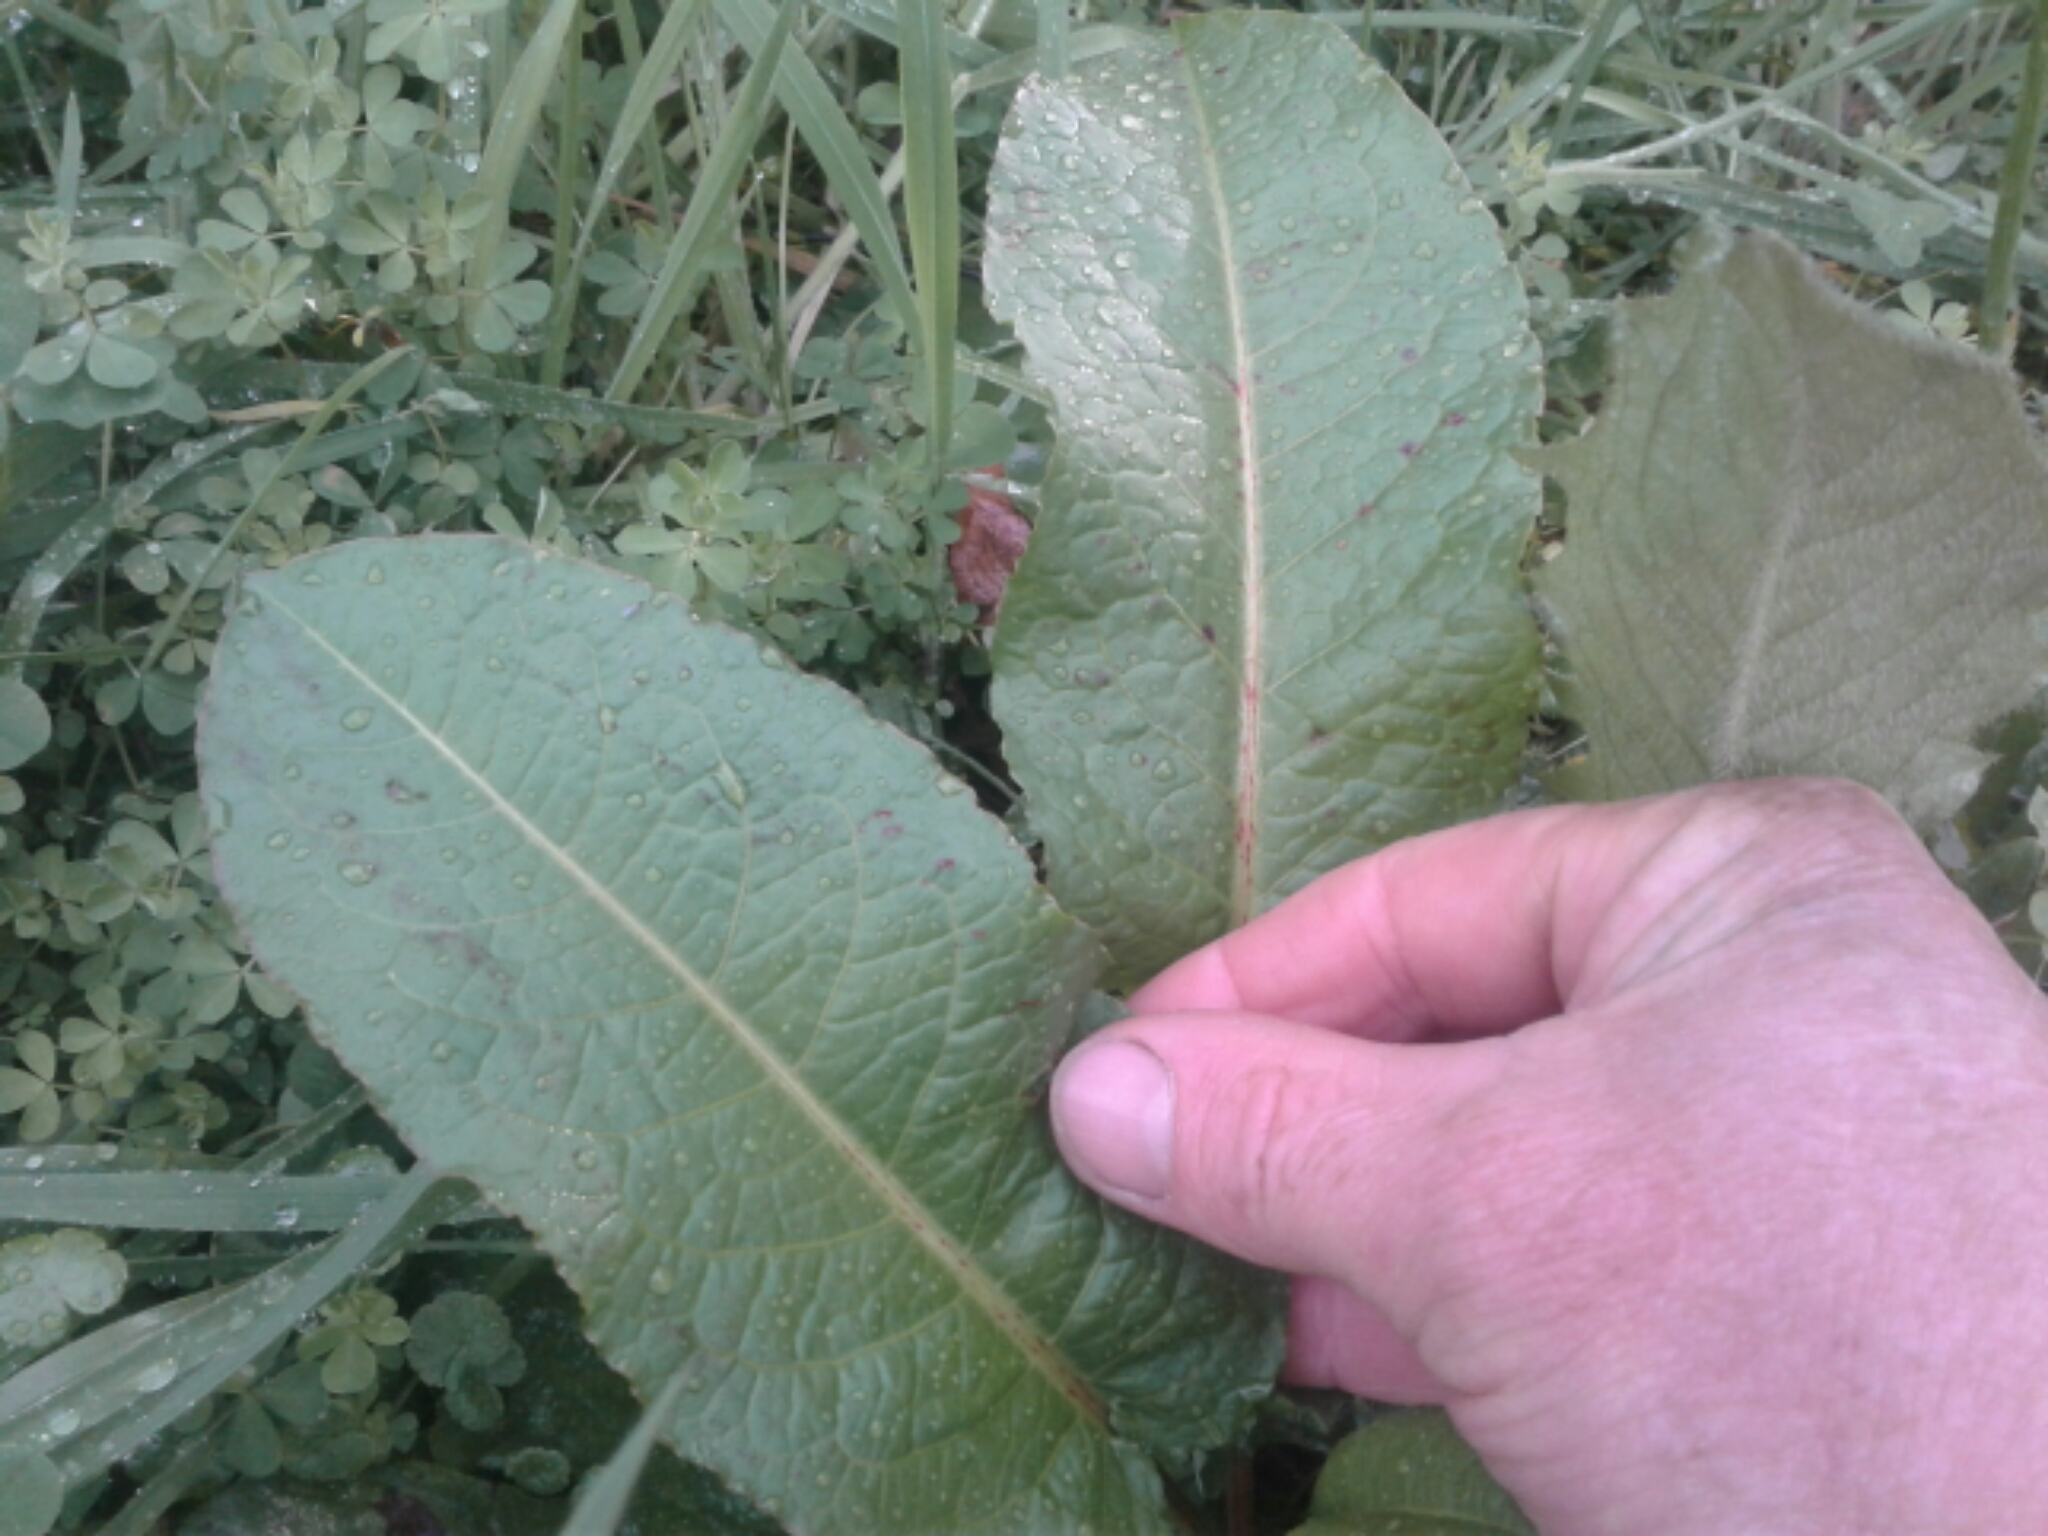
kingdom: Plantae
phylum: Tracheophyta
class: Magnoliopsida
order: Caryophyllales
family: Polygonaceae
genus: Rumex
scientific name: Rumex obtusifolius
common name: Bitter dock
